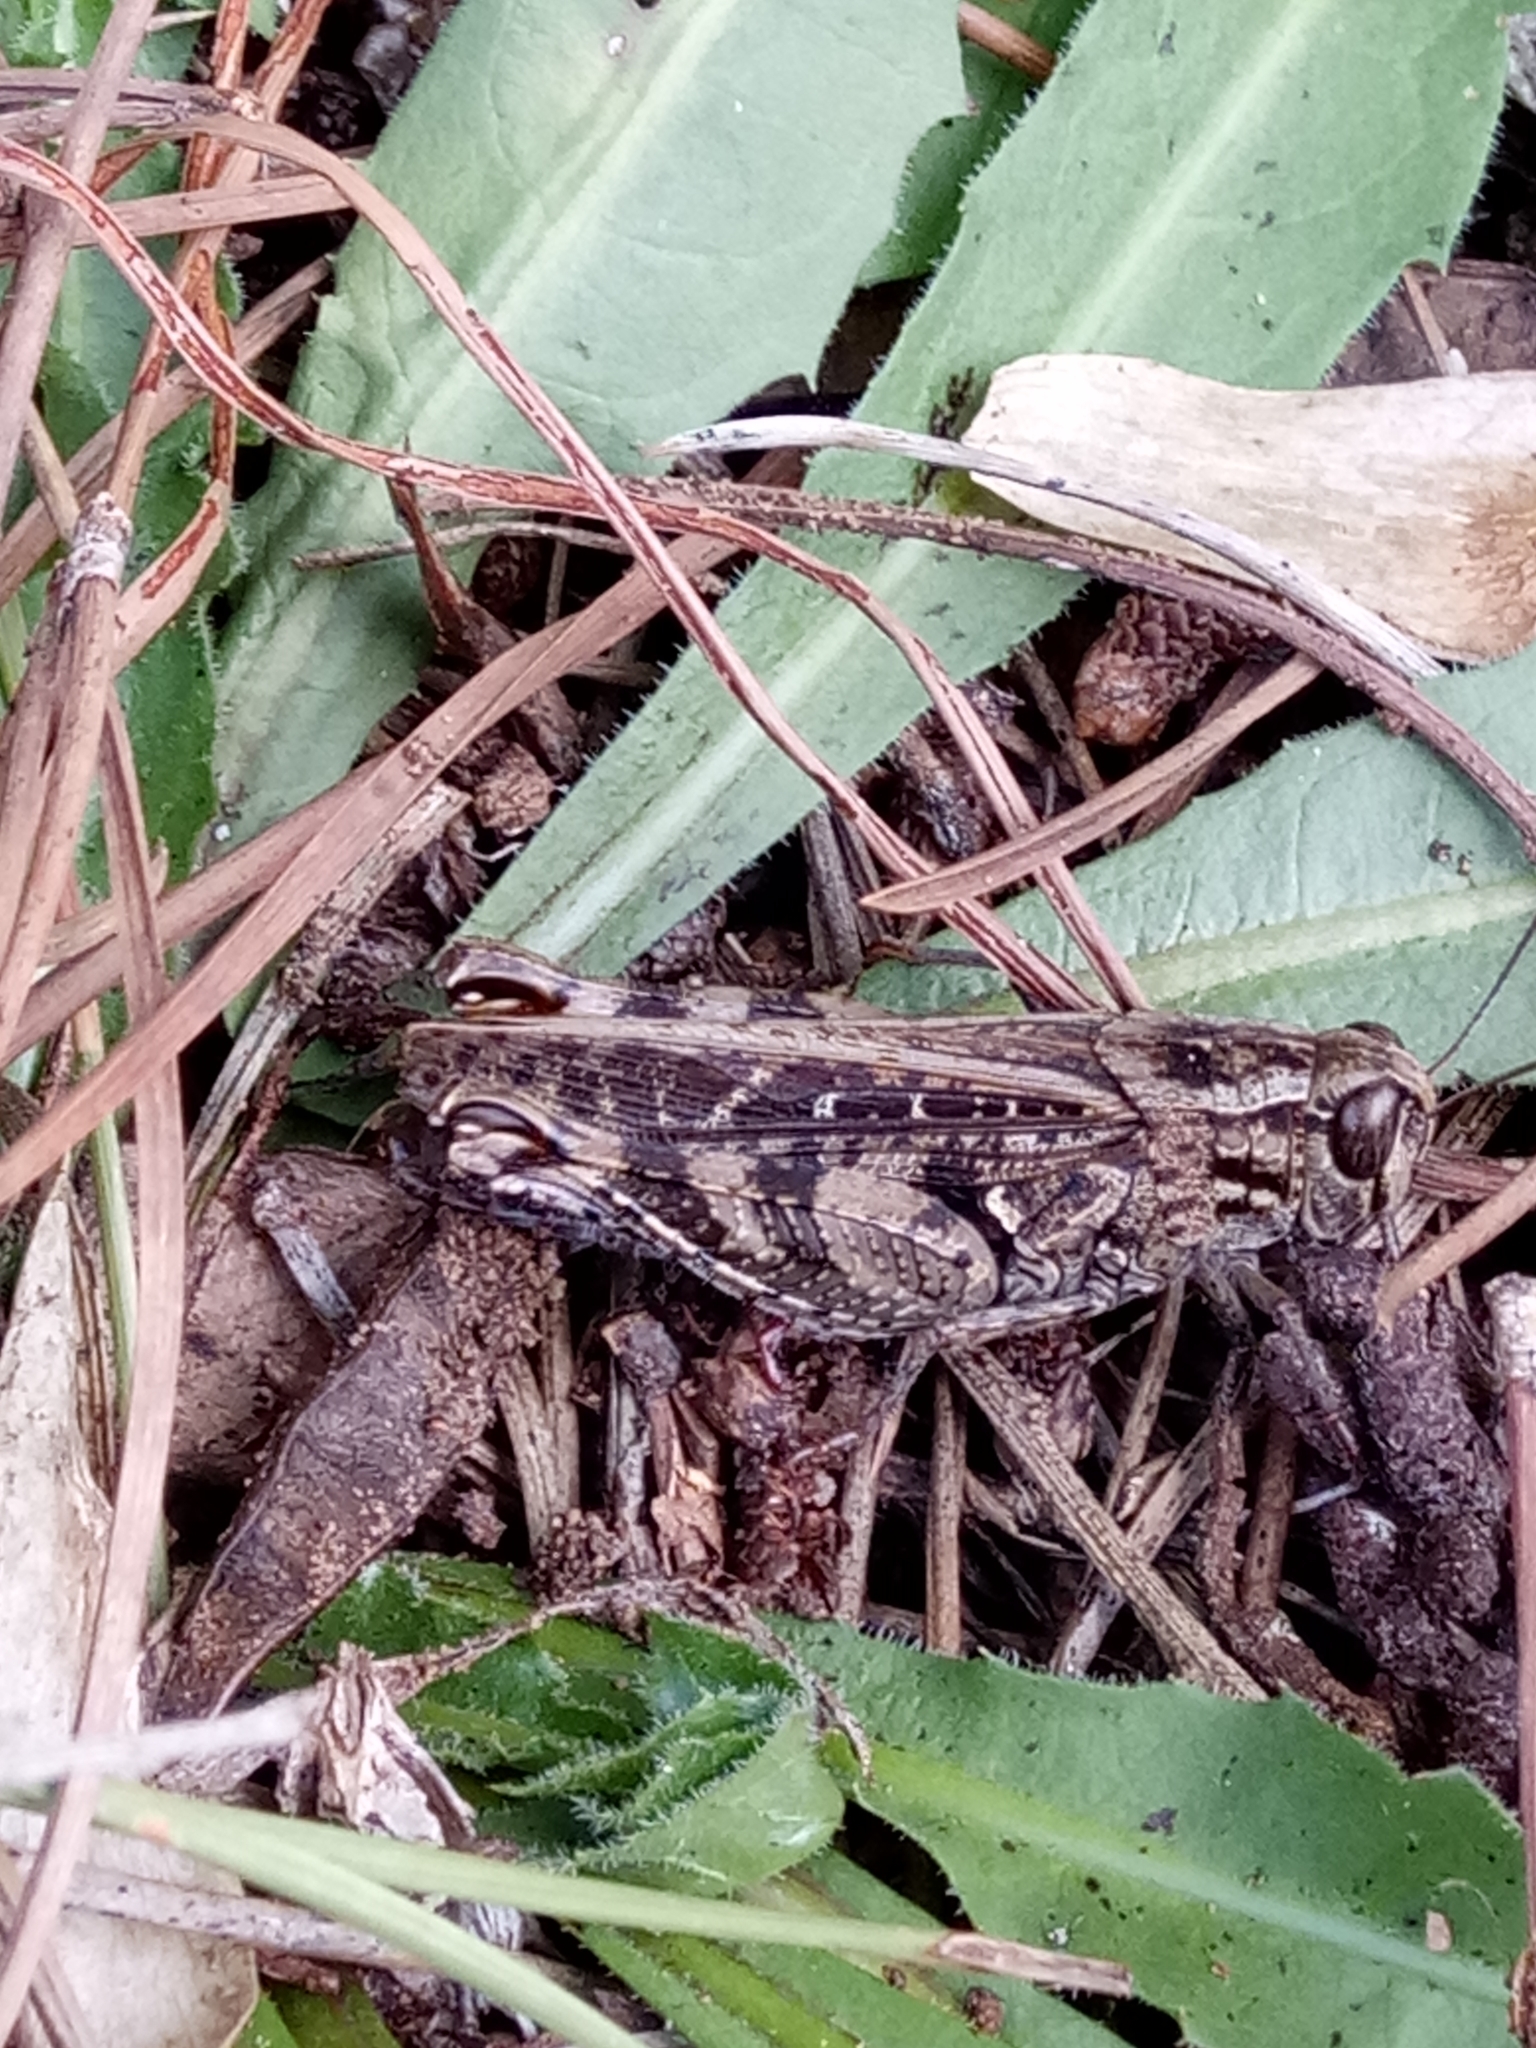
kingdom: Animalia
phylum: Arthropoda
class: Insecta
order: Orthoptera
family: Acrididae
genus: Calliptamus
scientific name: Calliptamus barbarus
